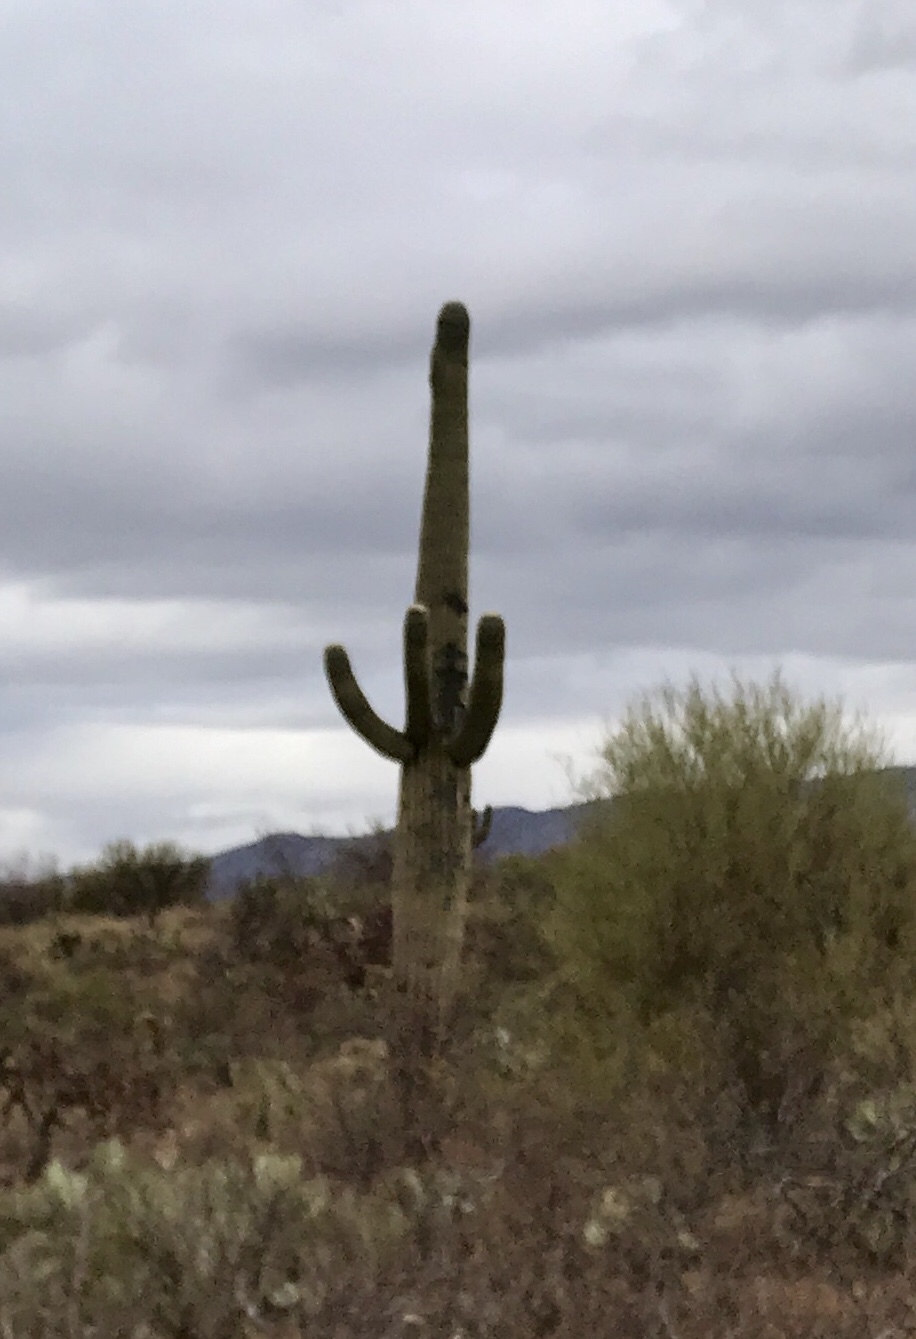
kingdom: Plantae
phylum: Tracheophyta
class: Magnoliopsida
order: Caryophyllales
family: Cactaceae
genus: Carnegiea
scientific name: Carnegiea gigantea
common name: Saguaro
